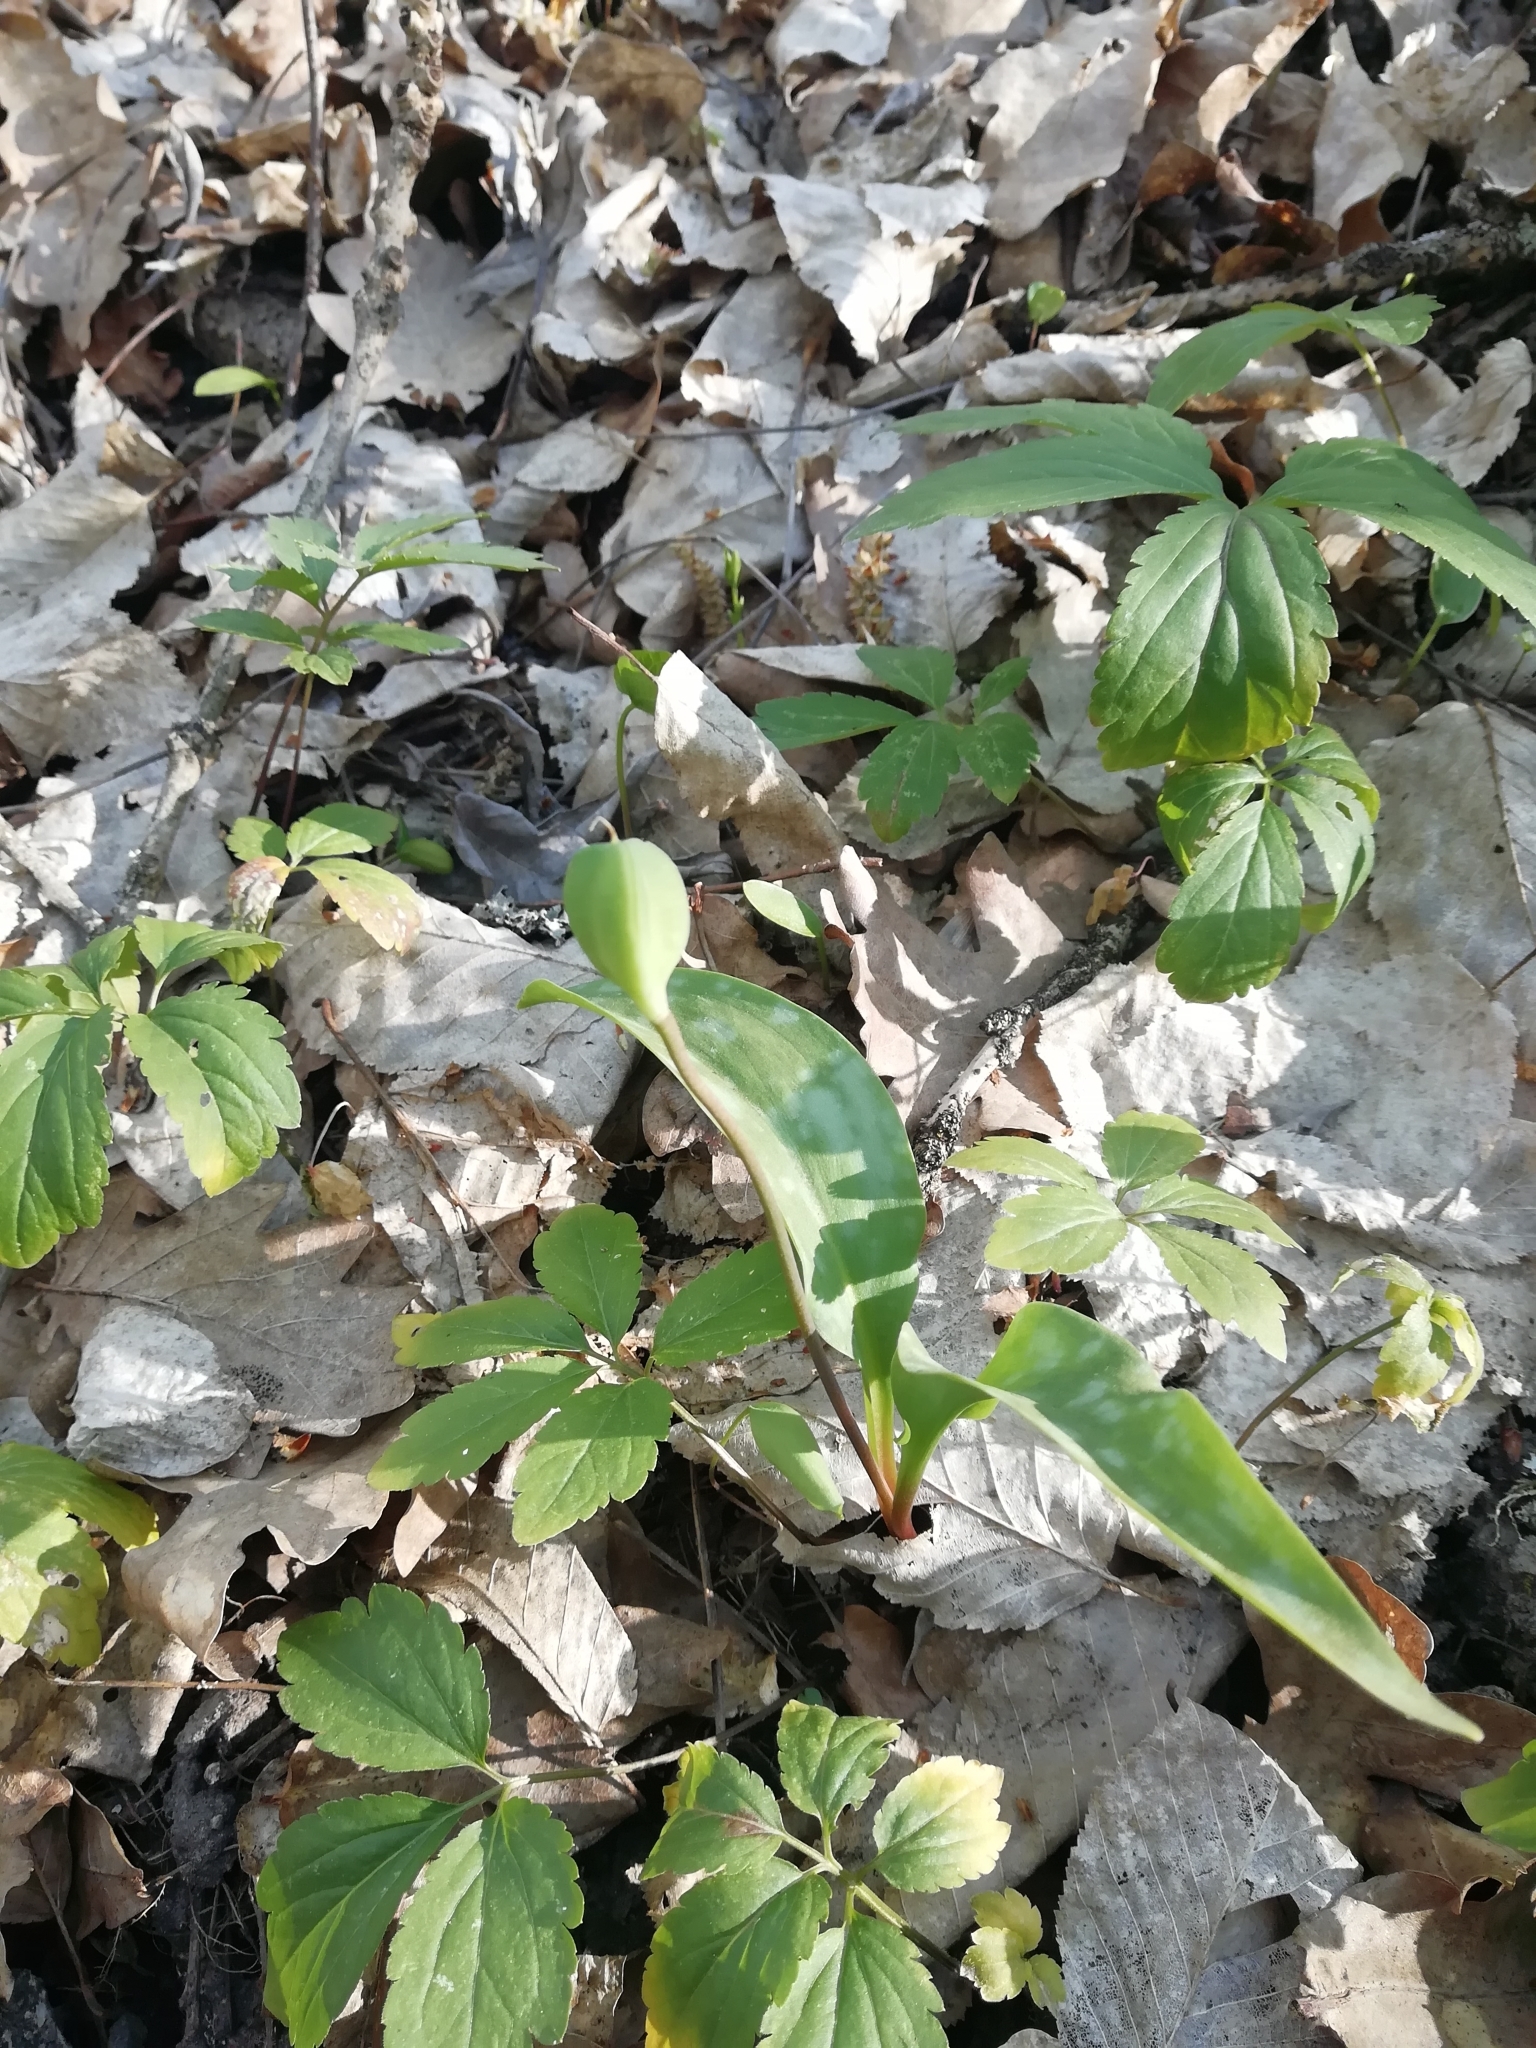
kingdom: Plantae
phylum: Tracheophyta
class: Liliopsida
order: Liliales
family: Liliaceae
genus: Erythronium
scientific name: Erythronium caucasicum
